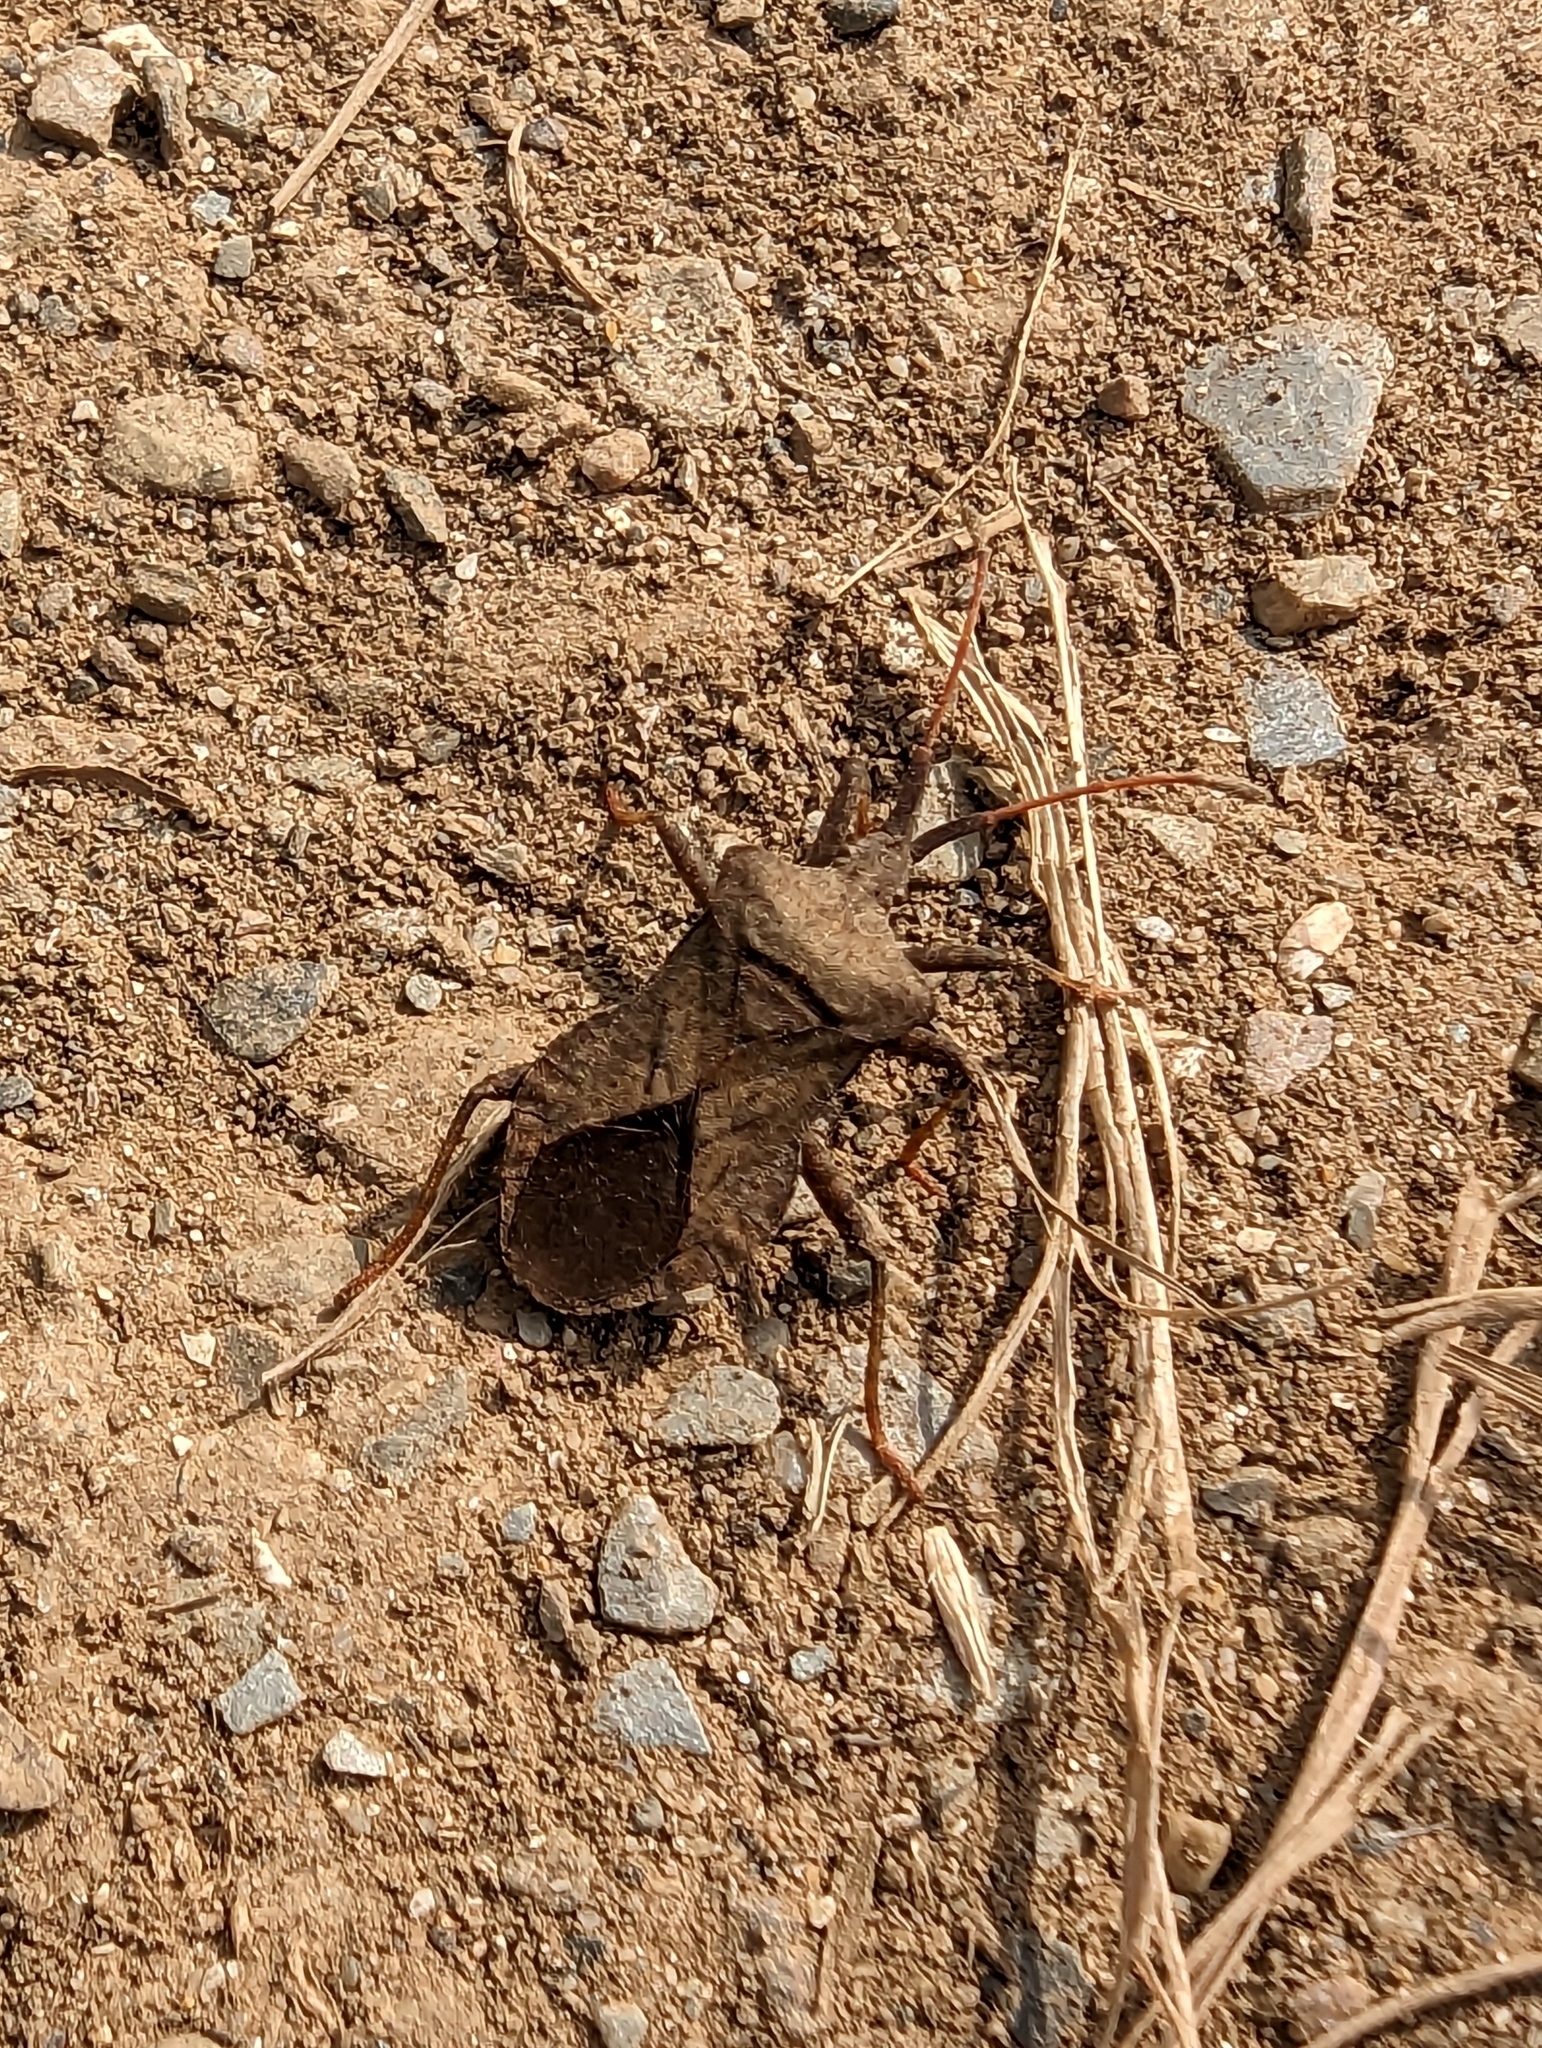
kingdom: Animalia
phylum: Arthropoda
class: Insecta
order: Hemiptera
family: Coreidae
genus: Coreus
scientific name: Coreus marginatus
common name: Dock bug
